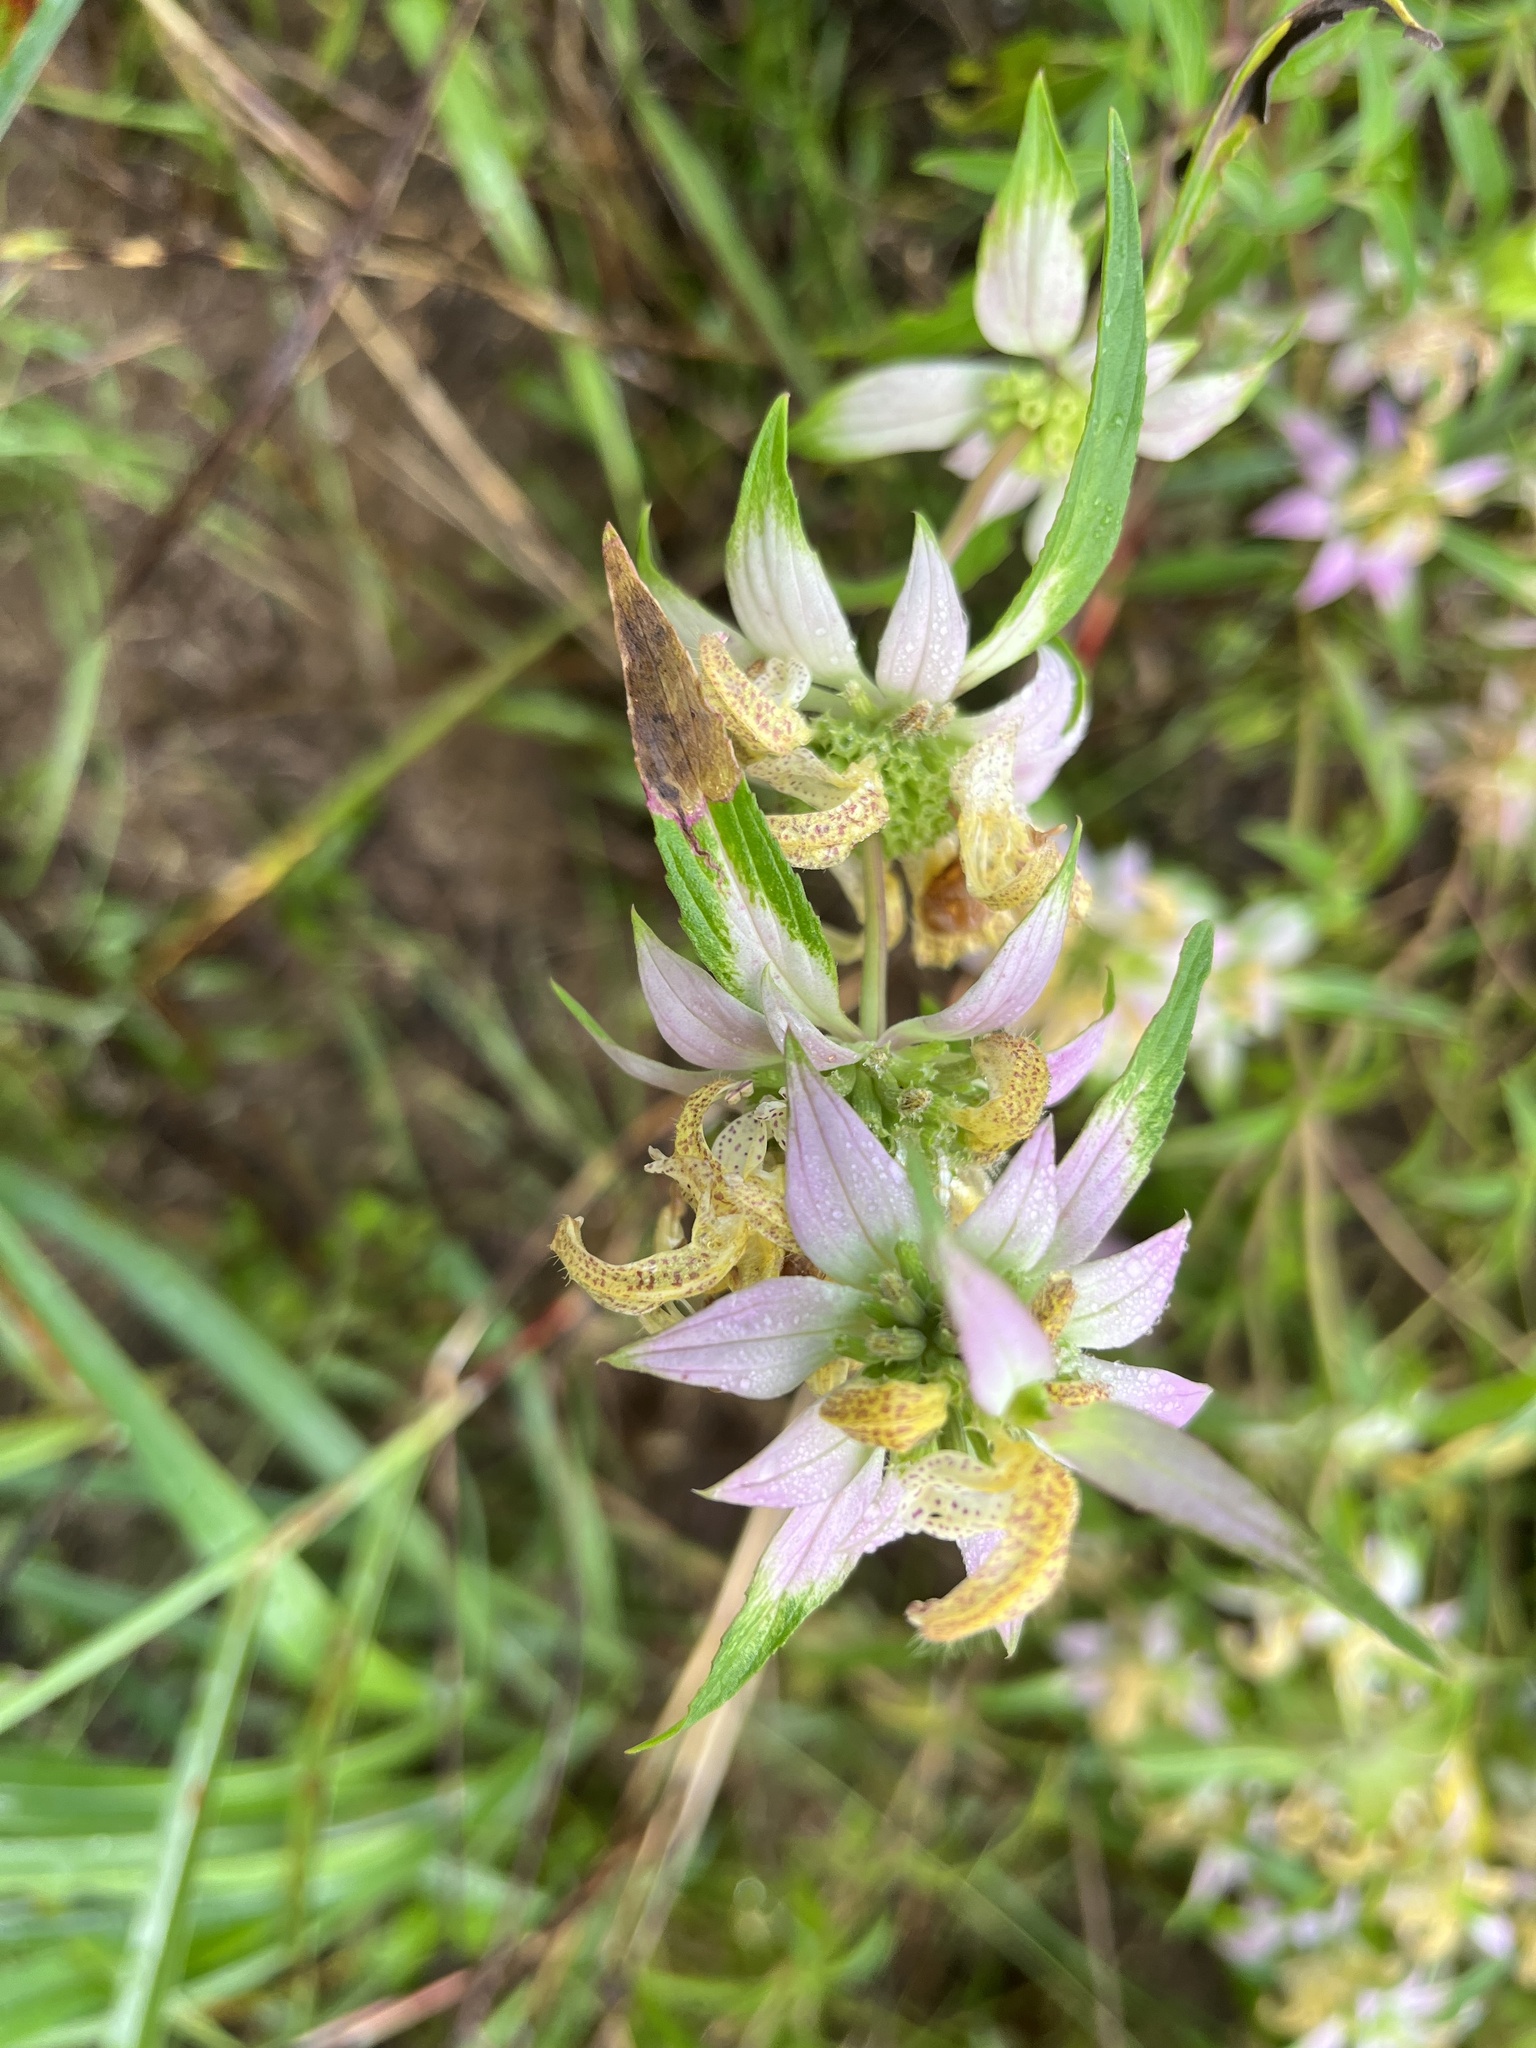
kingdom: Plantae
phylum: Tracheophyta
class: Magnoliopsida
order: Lamiales
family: Lamiaceae
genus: Monarda
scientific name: Monarda punctata
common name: Dotted monarda
